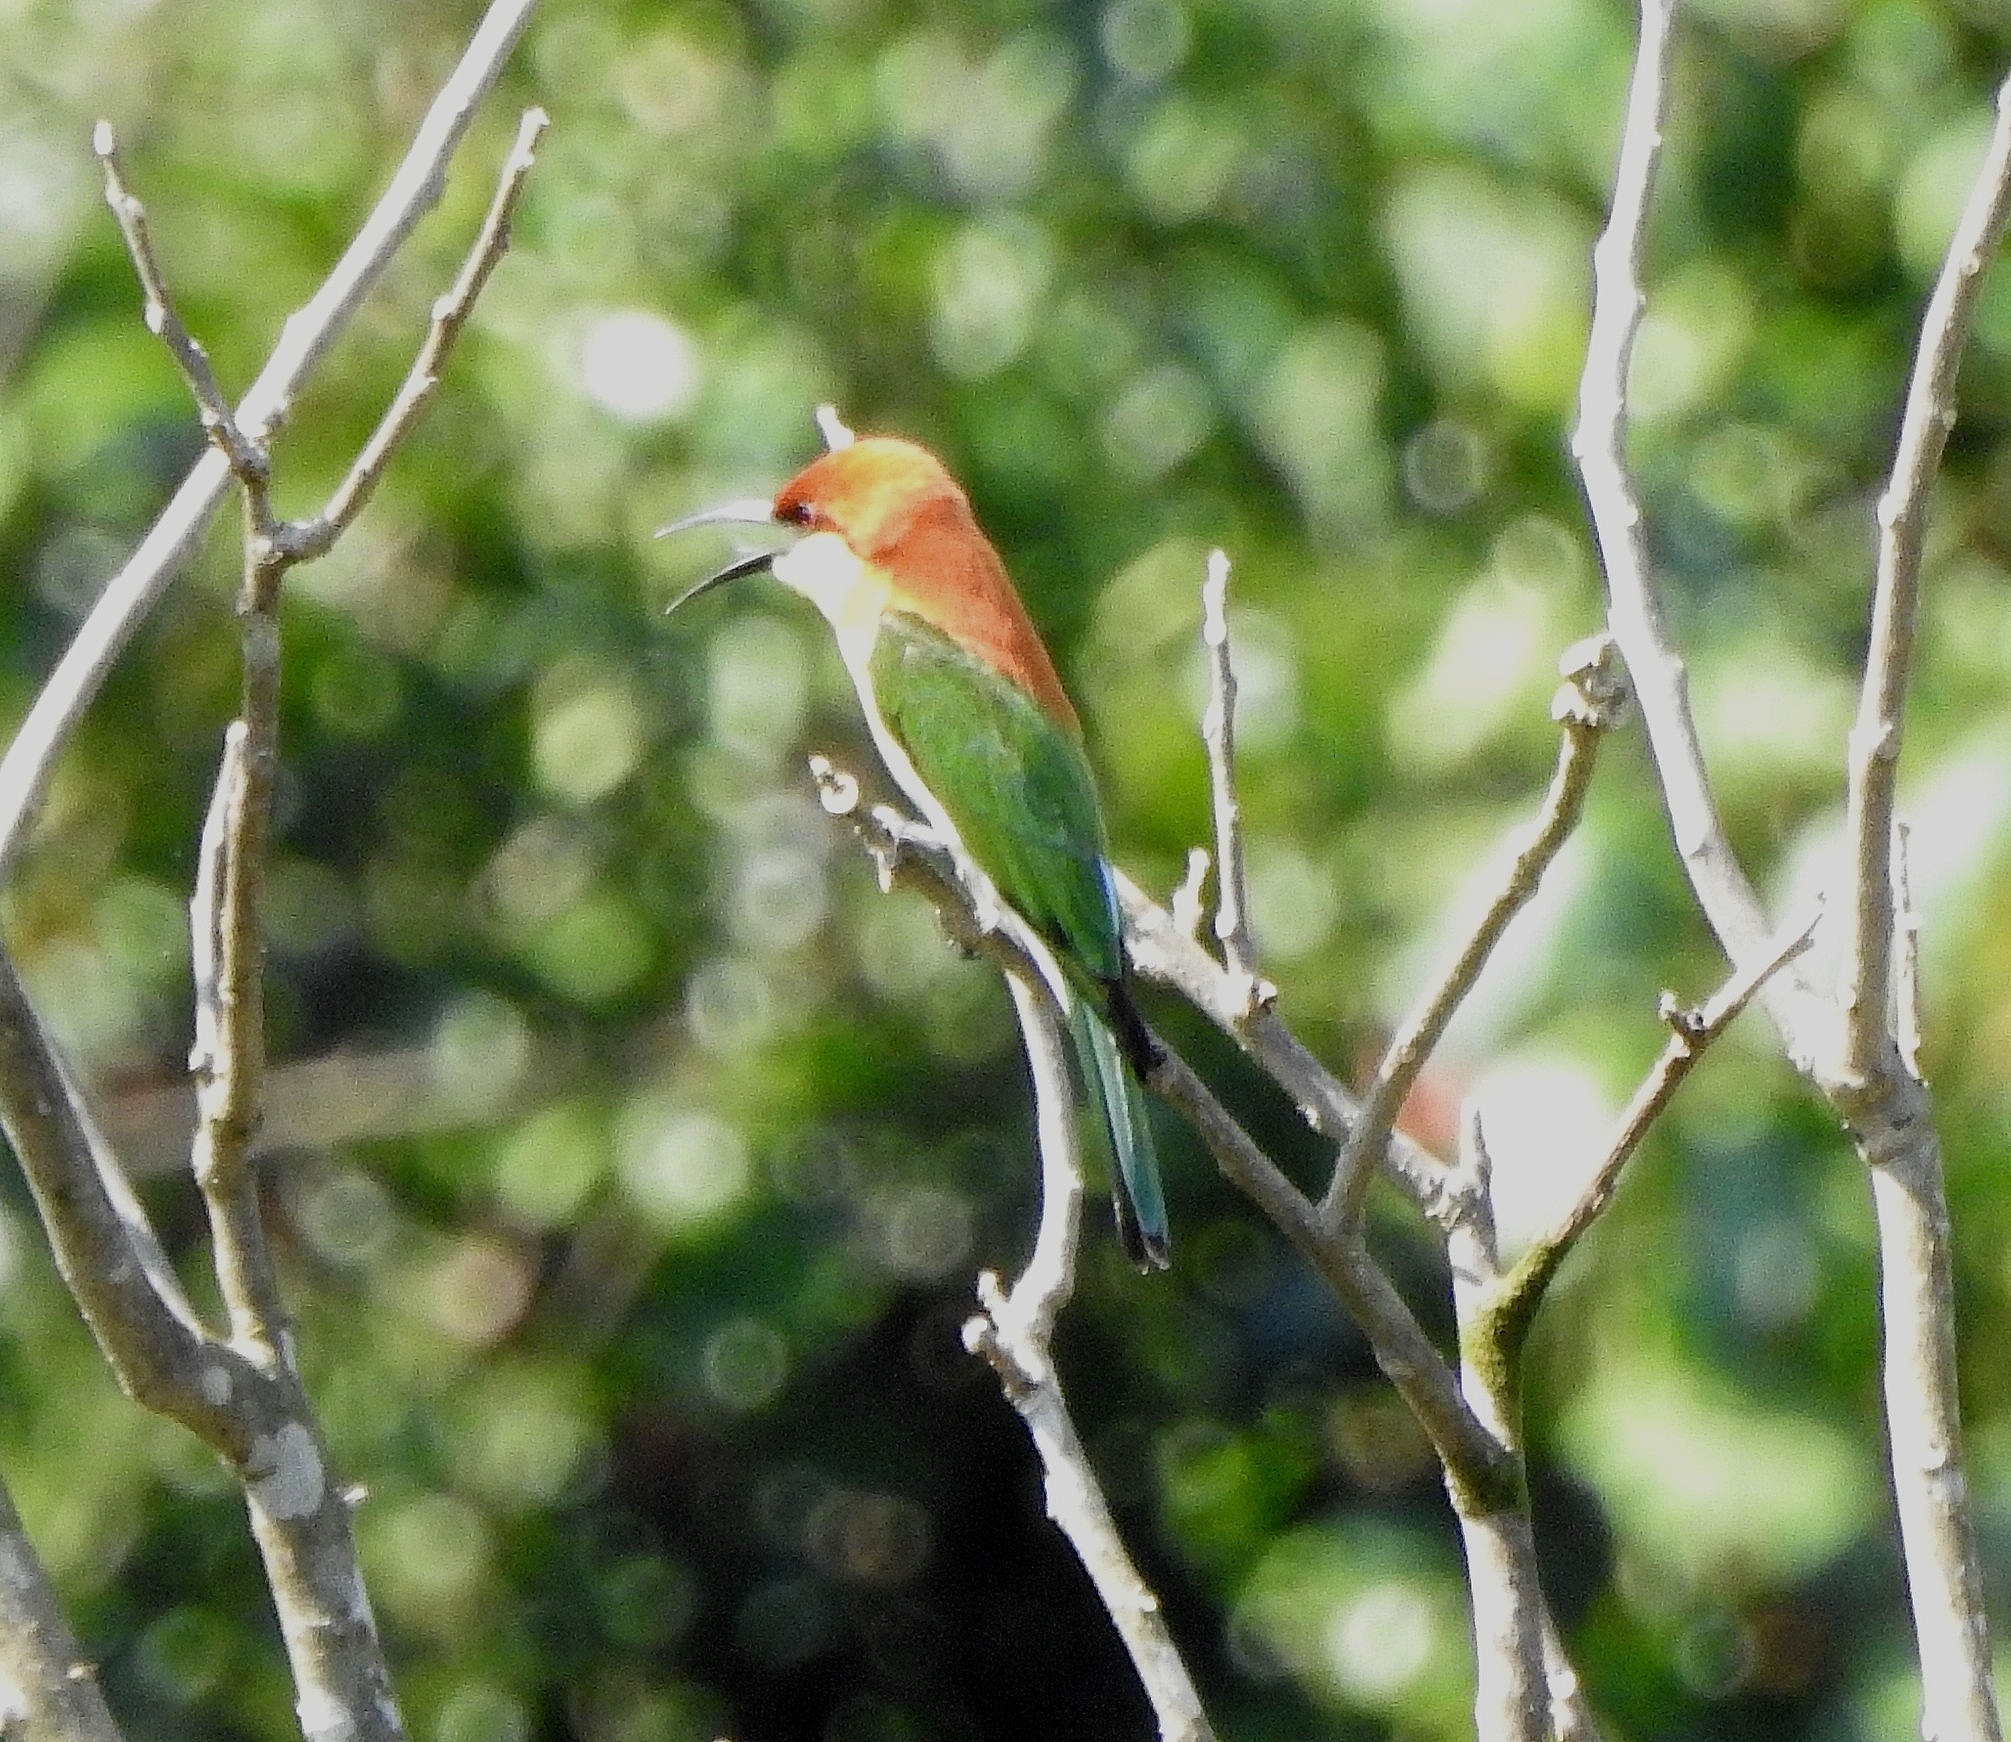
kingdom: Animalia
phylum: Chordata
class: Aves
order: Coraciiformes
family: Meropidae
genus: Merops
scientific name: Merops leschenaulti
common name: Chestnut-headed bee-eater
